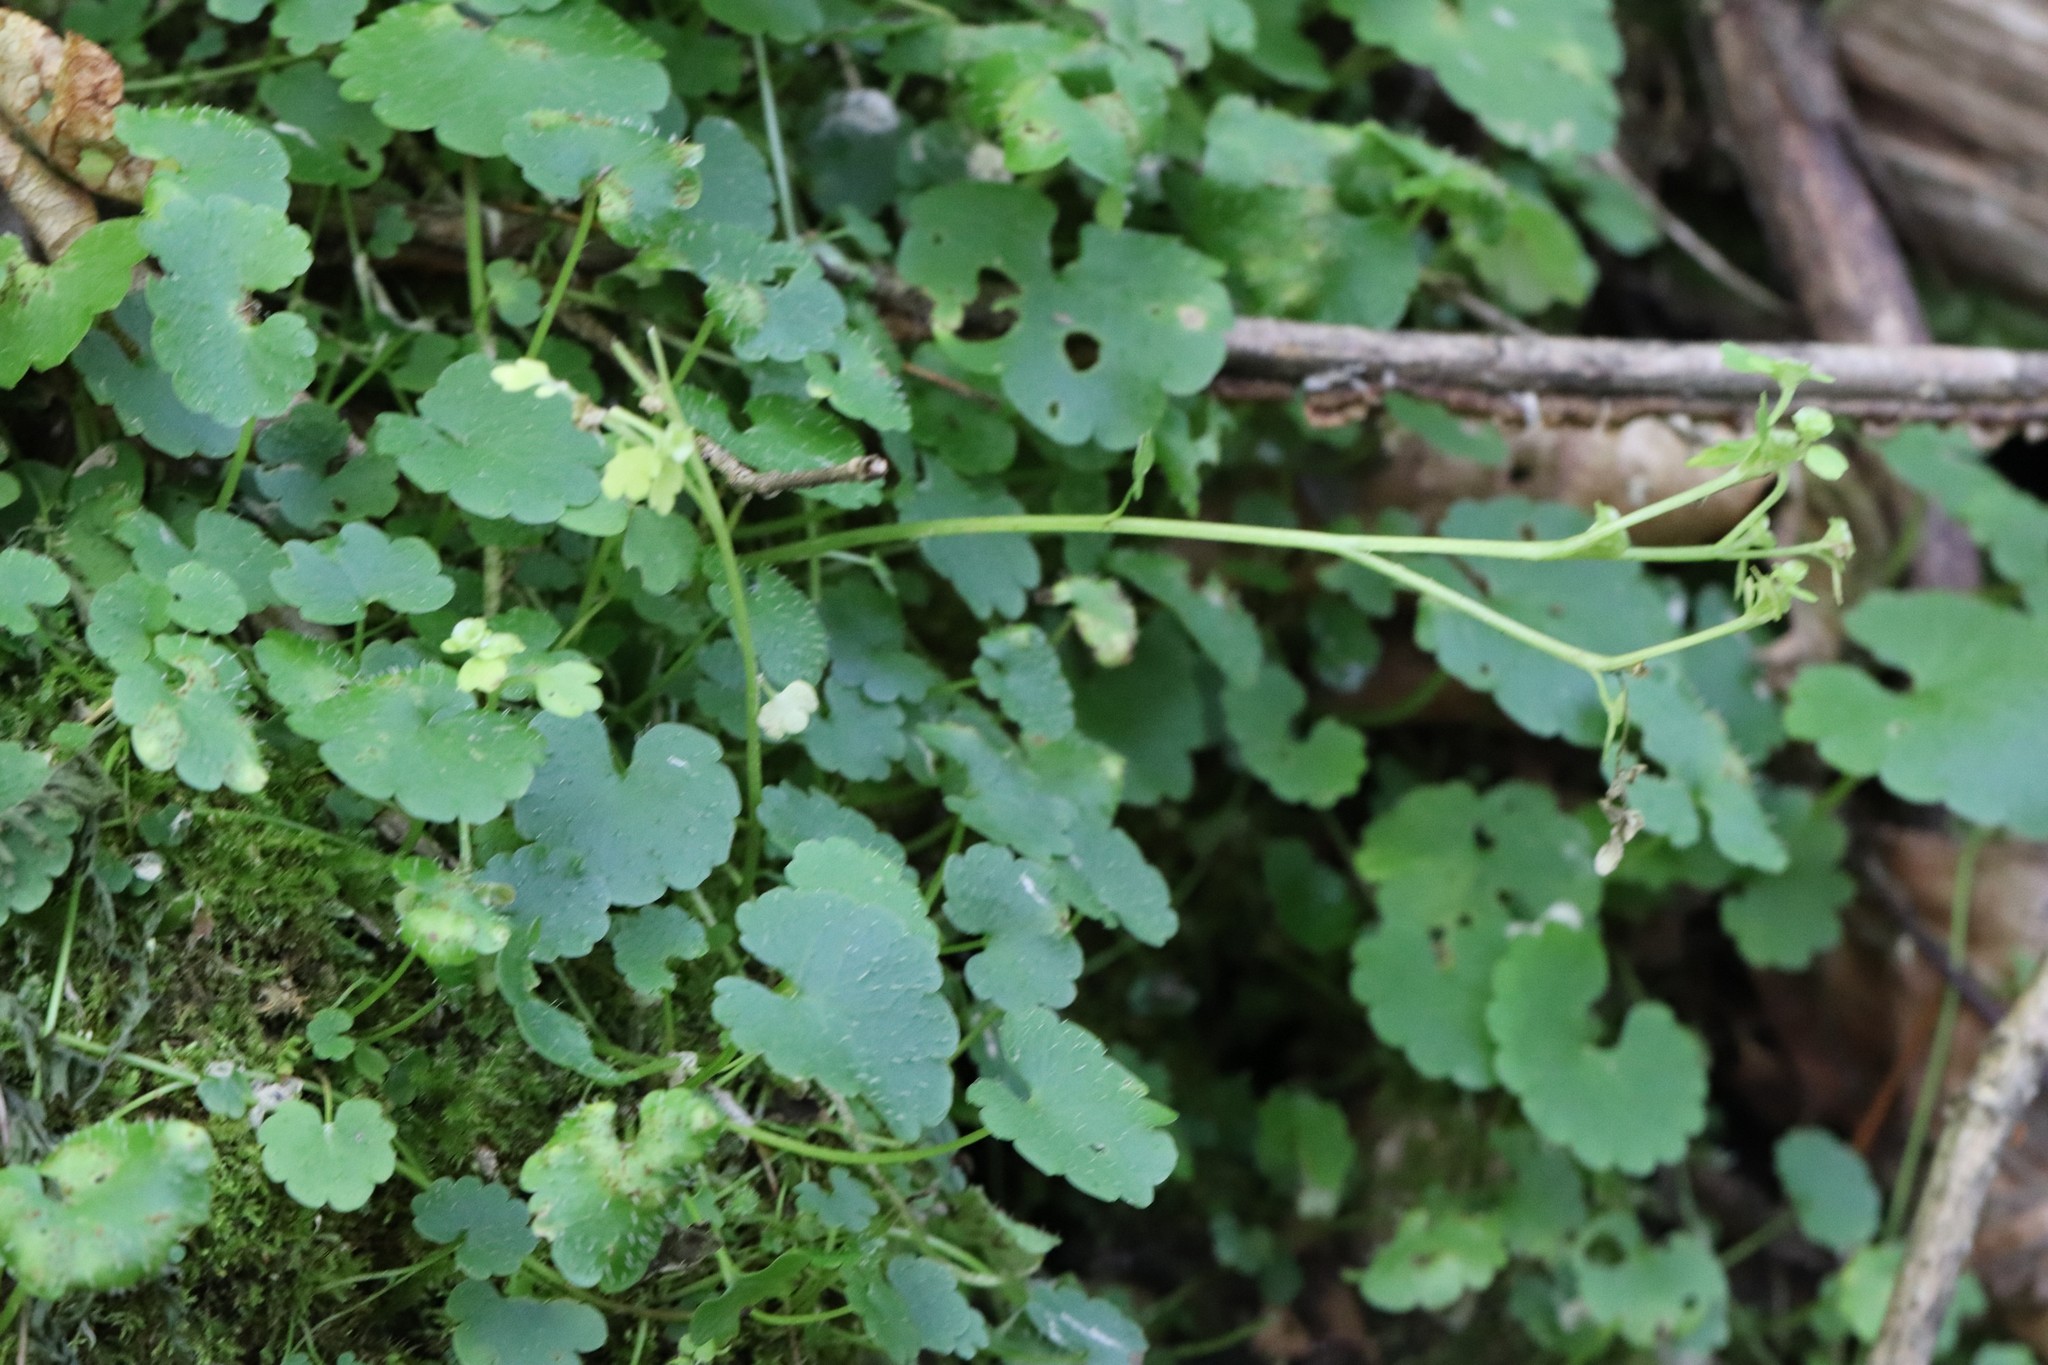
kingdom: Plantae
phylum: Tracheophyta
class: Magnoliopsida
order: Saxifragales
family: Saxifragaceae
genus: Chrysosplenium
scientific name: Chrysosplenium flagelliferum
